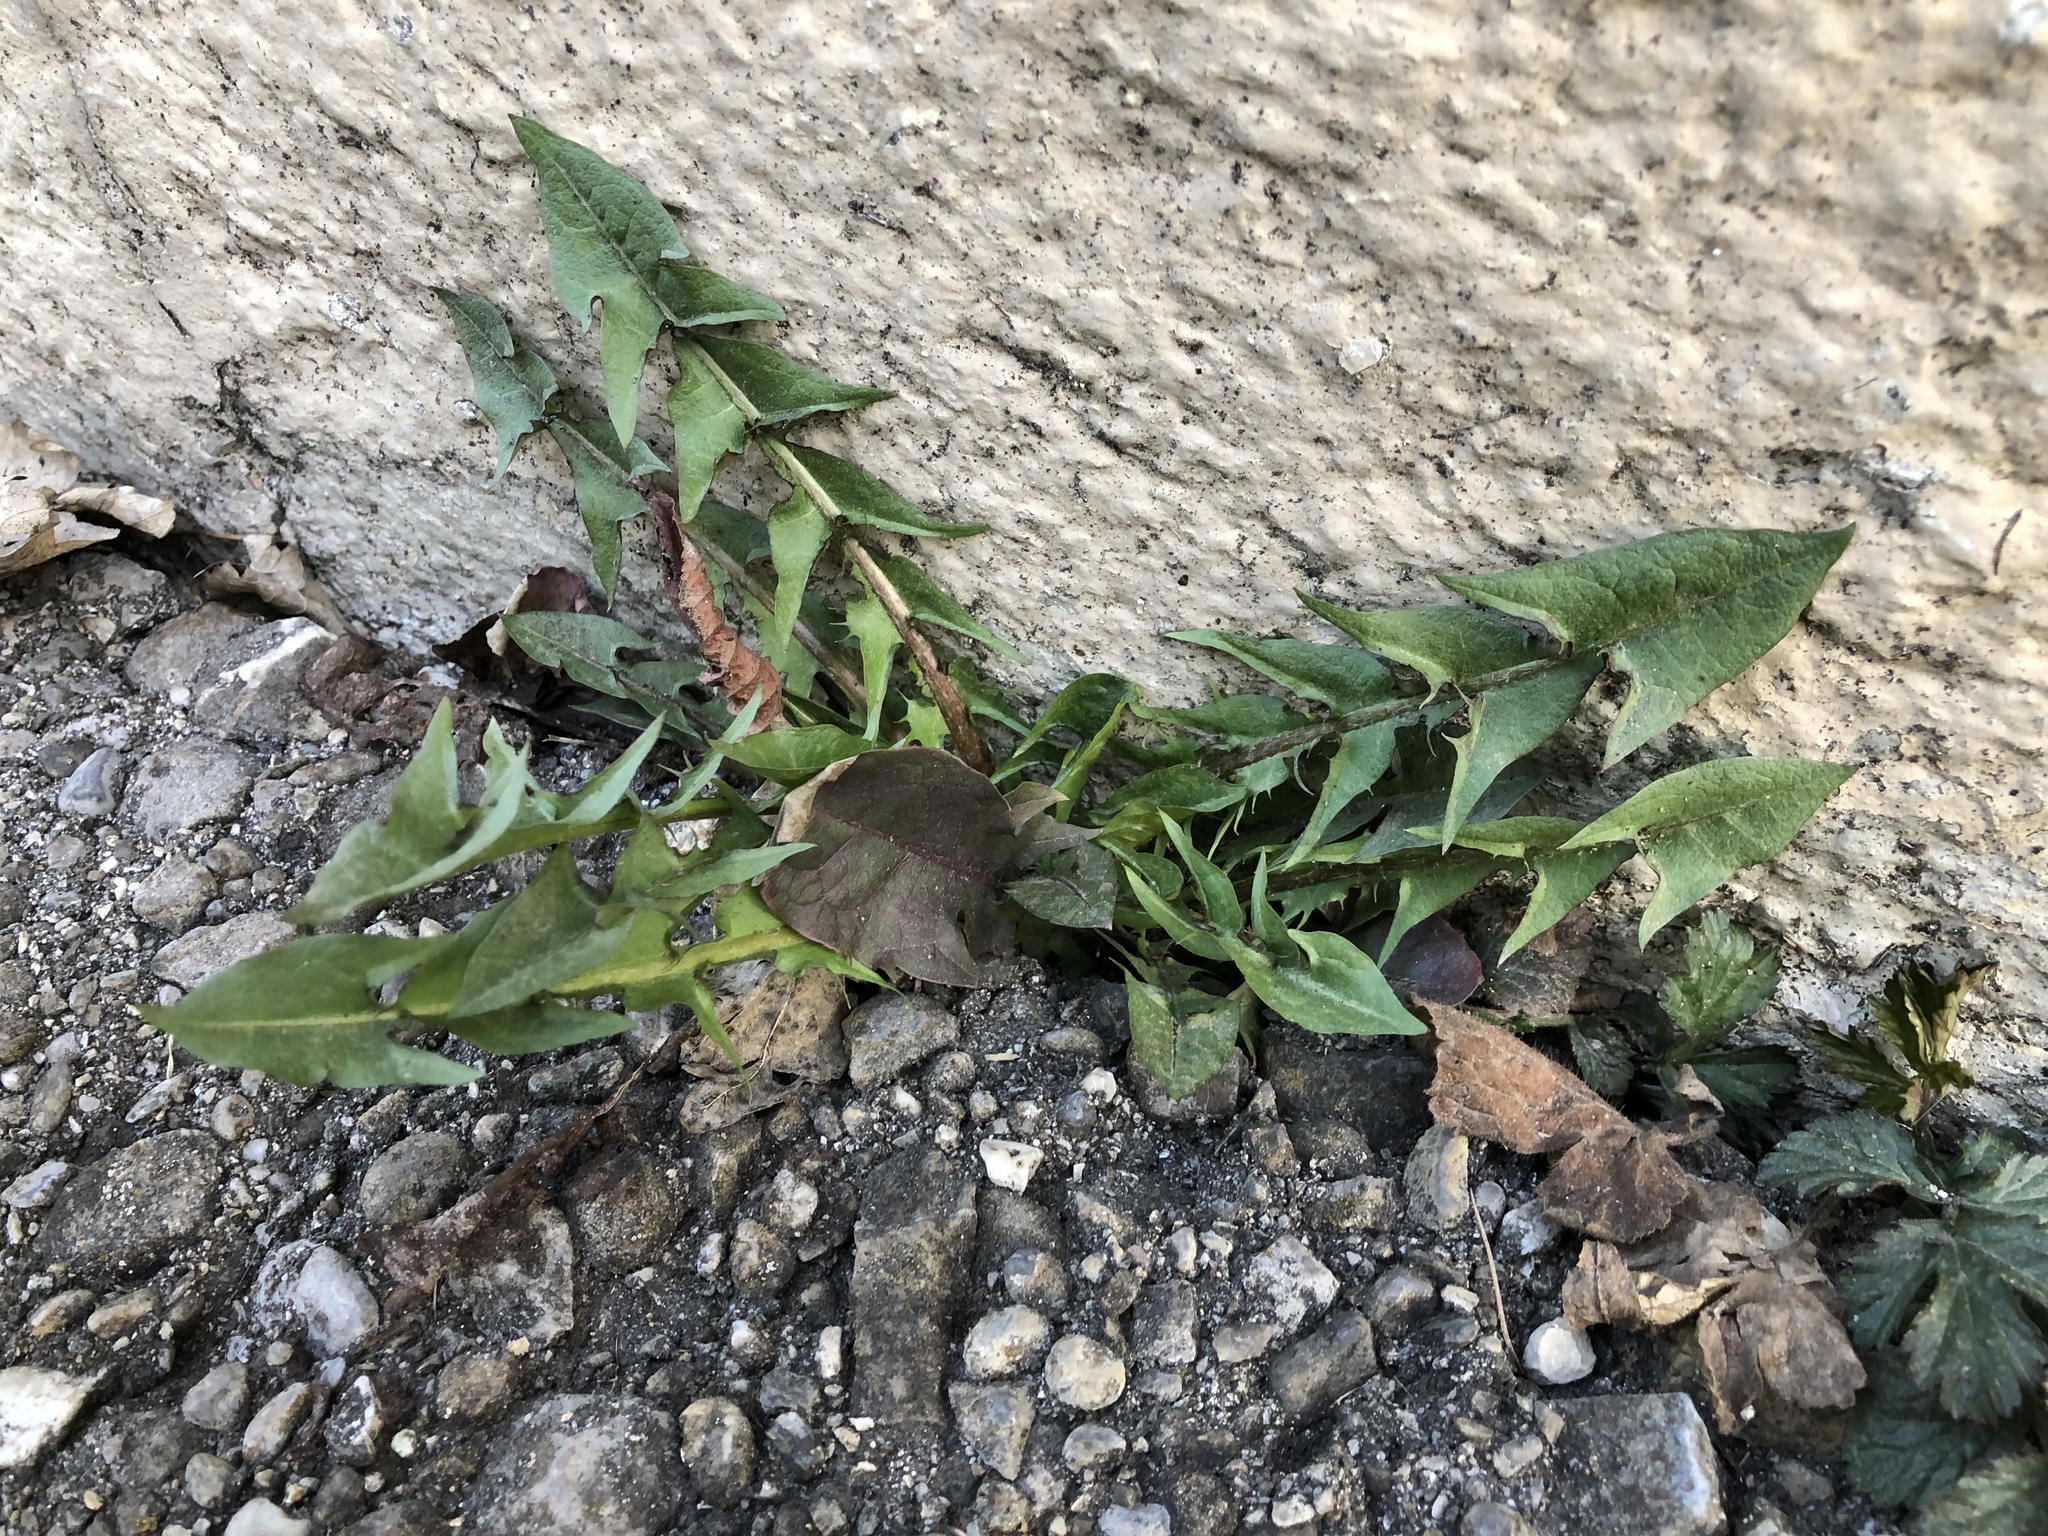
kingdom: Plantae
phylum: Tracheophyta
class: Magnoliopsida
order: Asterales
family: Asteraceae
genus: Taraxacum
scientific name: Taraxacum officinale
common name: Common dandelion
